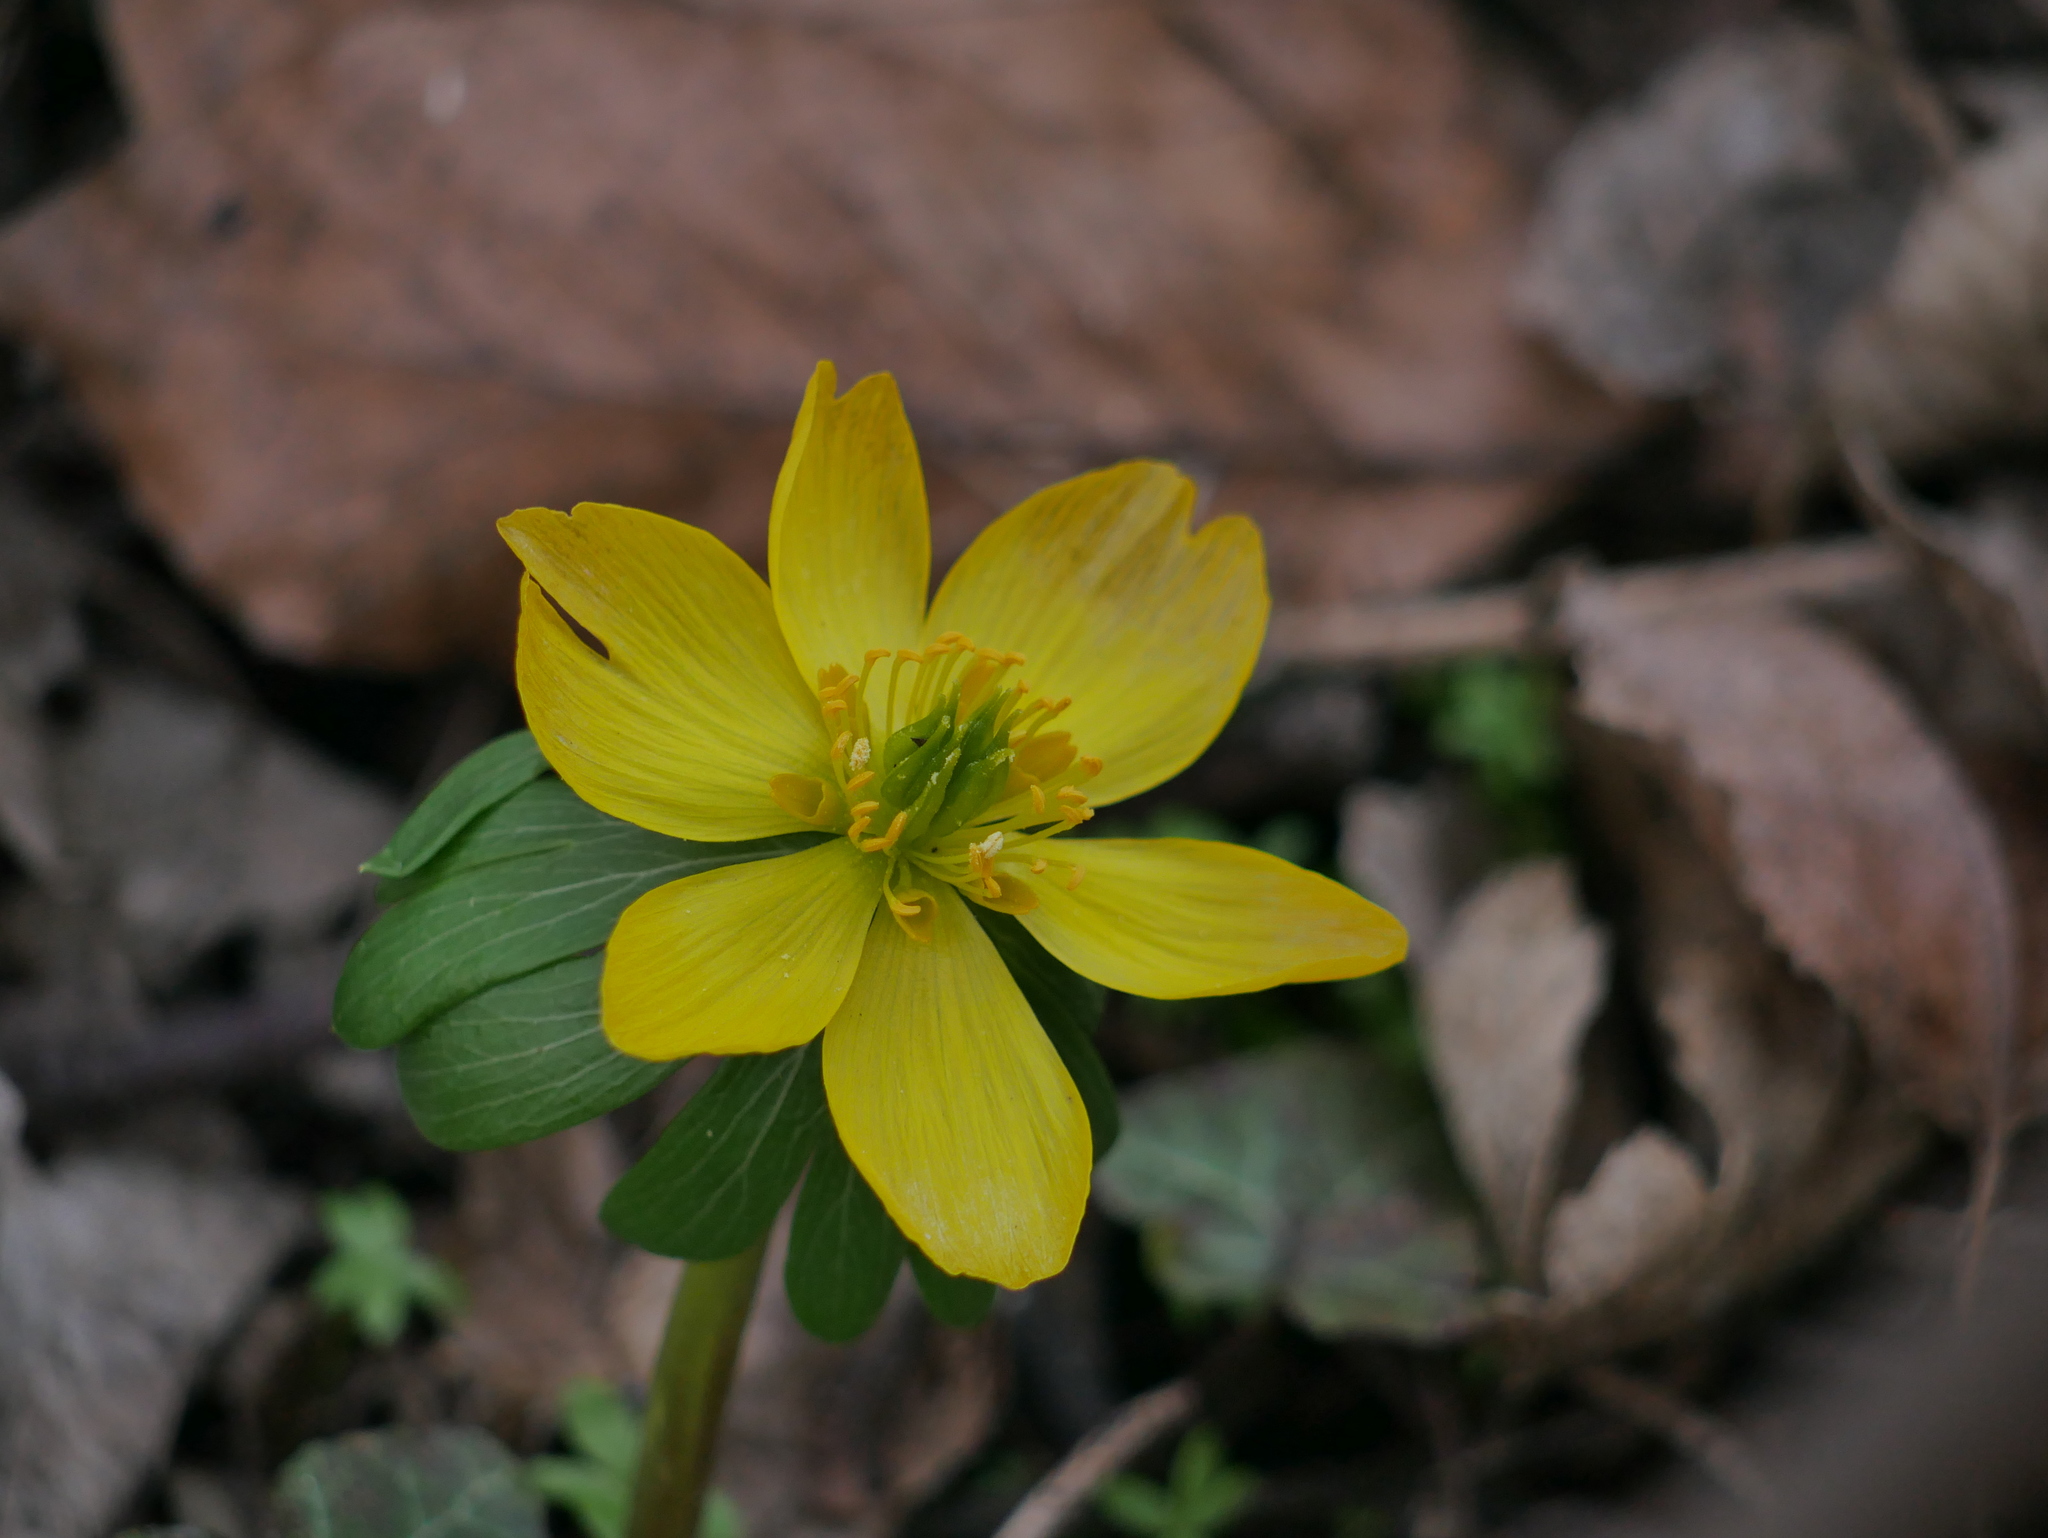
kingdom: Plantae
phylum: Tracheophyta
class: Magnoliopsida
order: Ranunculales
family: Ranunculaceae
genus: Eranthis
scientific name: Eranthis hyemalis
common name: Winter aconite
